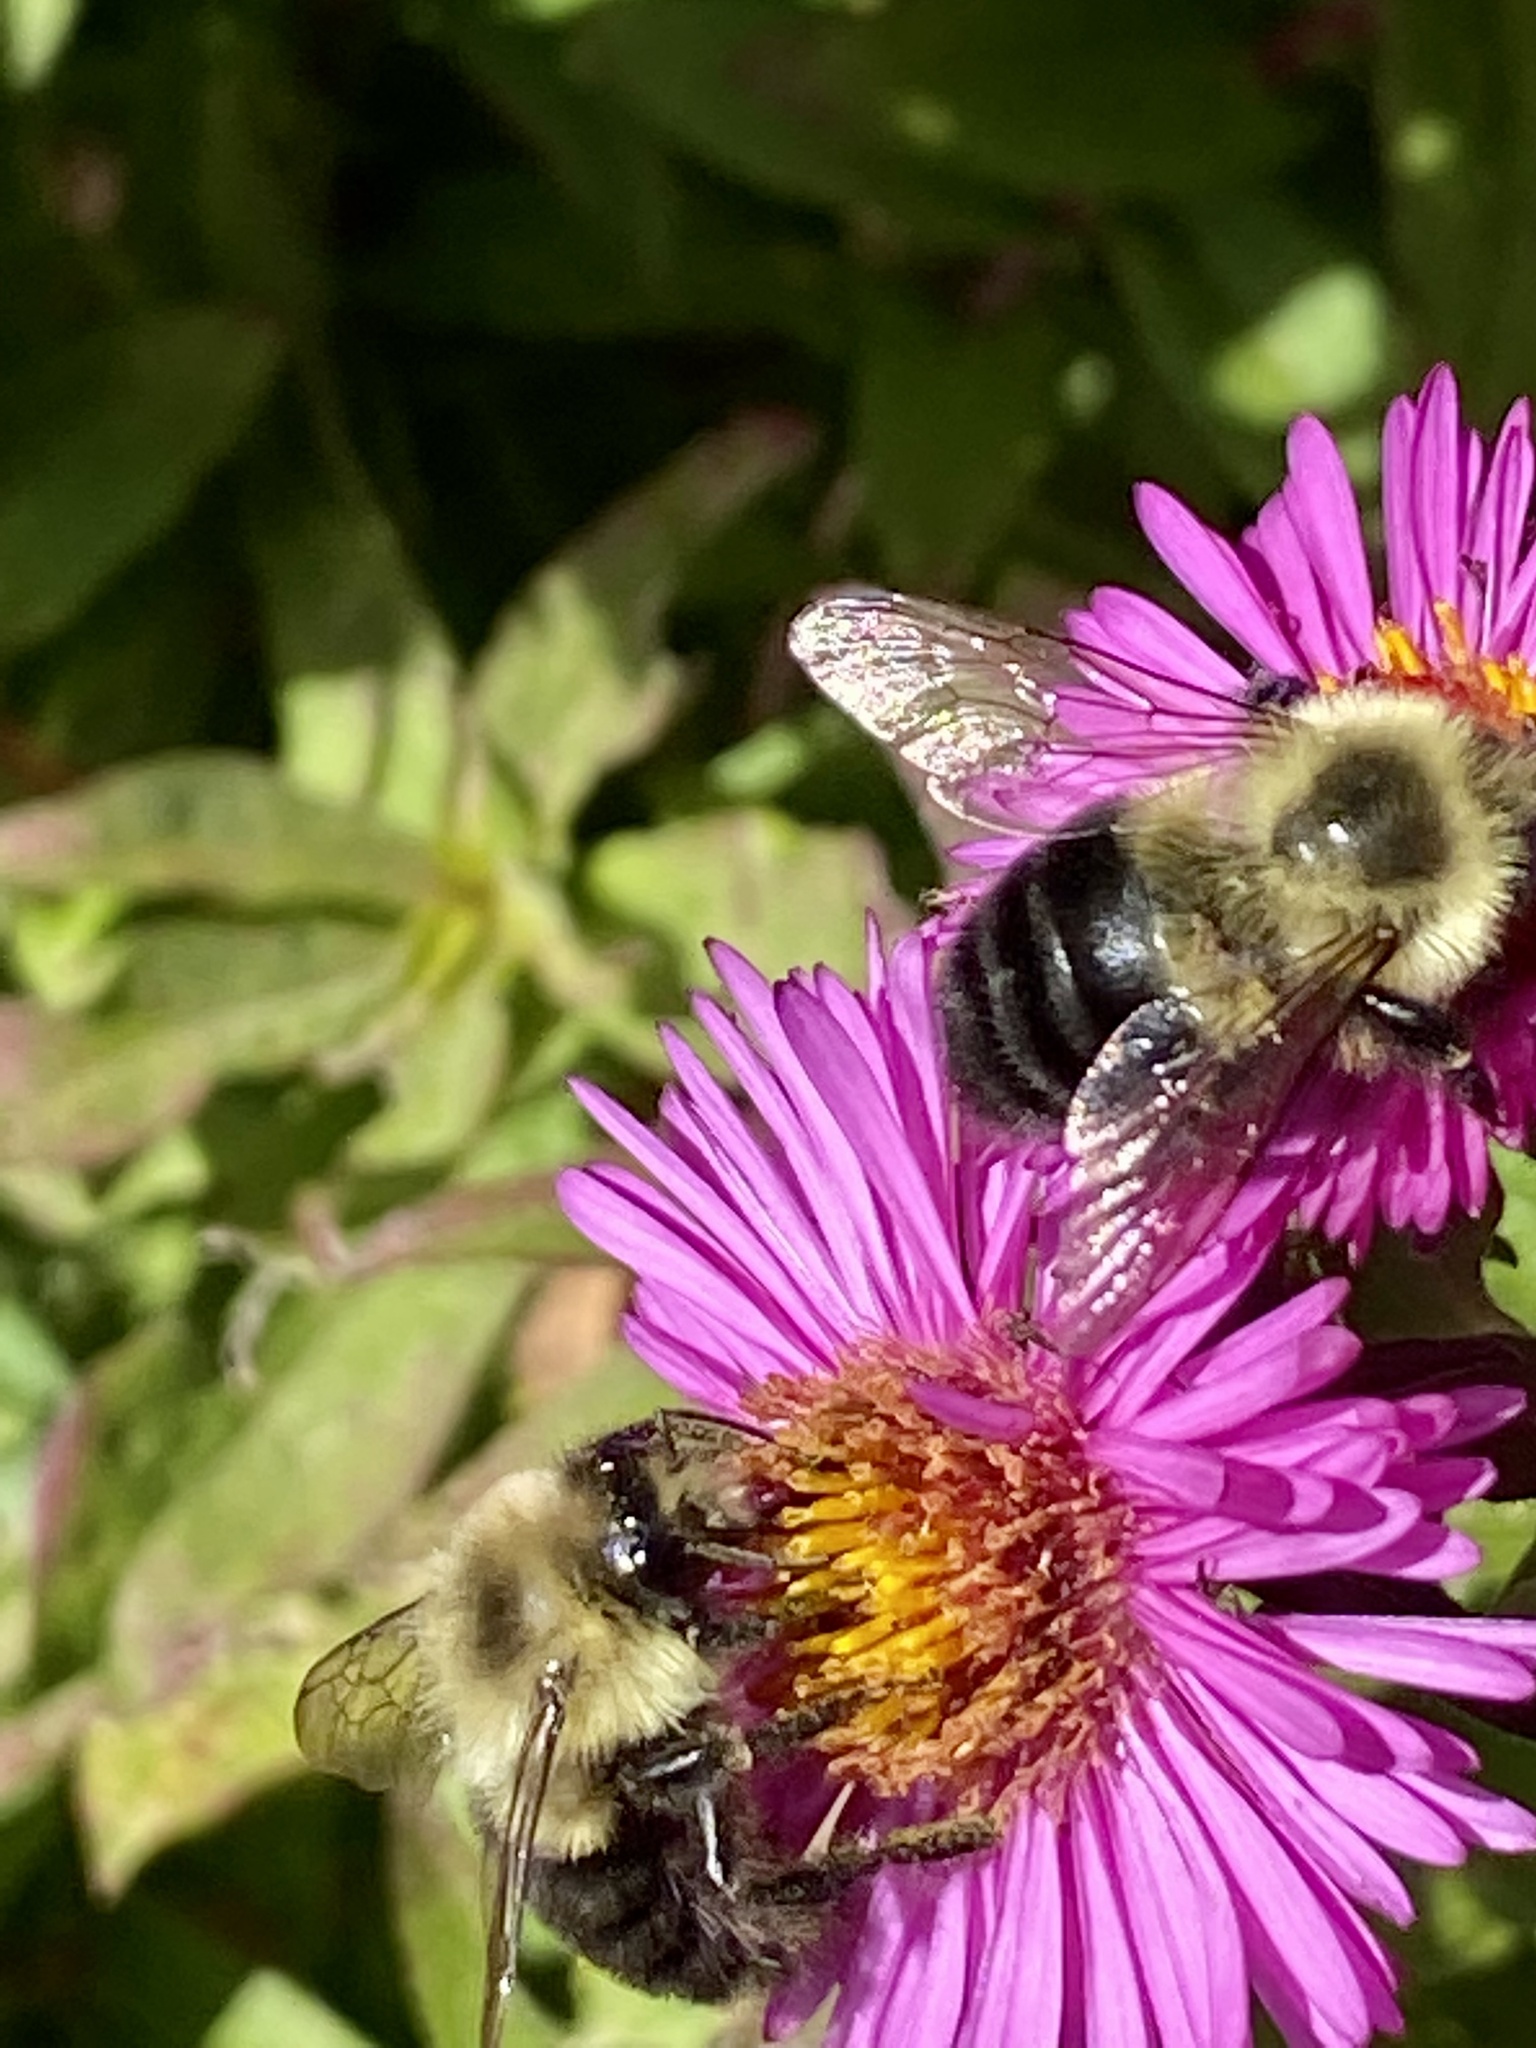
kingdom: Animalia
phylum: Arthropoda
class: Insecta
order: Hymenoptera
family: Apidae
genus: Bombus
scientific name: Bombus impatiens
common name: Common eastern bumble bee
